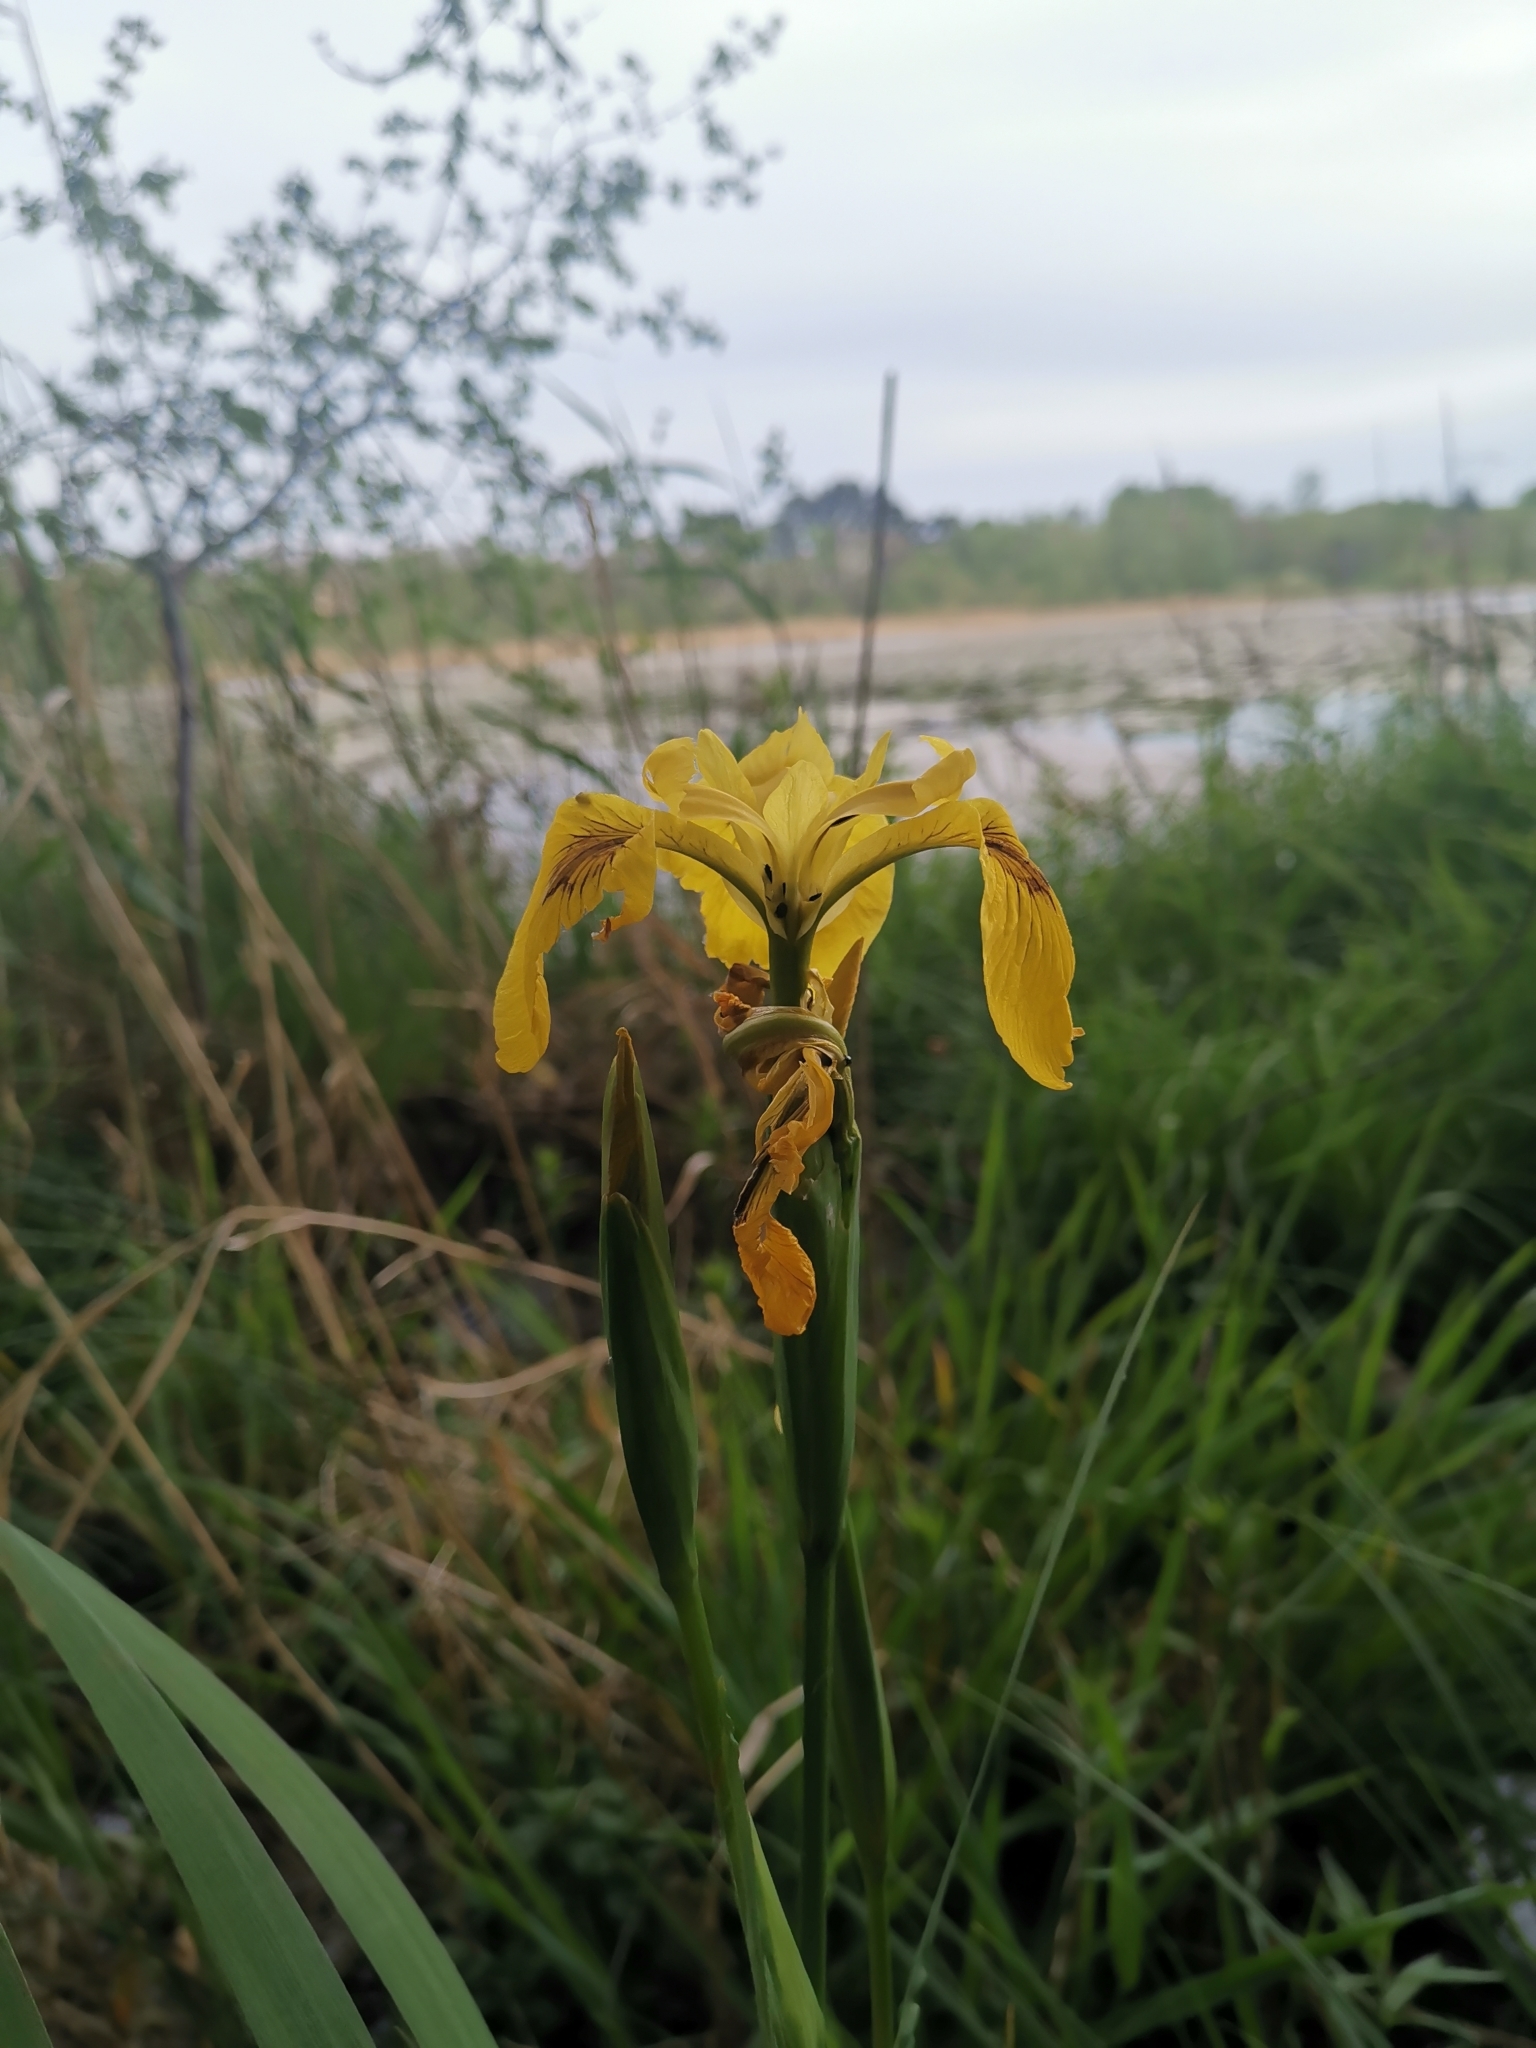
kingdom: Plantae
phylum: Tracheophyta
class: Liliopsida
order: Asparagales
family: Iridaceae
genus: Iris
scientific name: Iris pseudacorus
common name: Yellow flag
